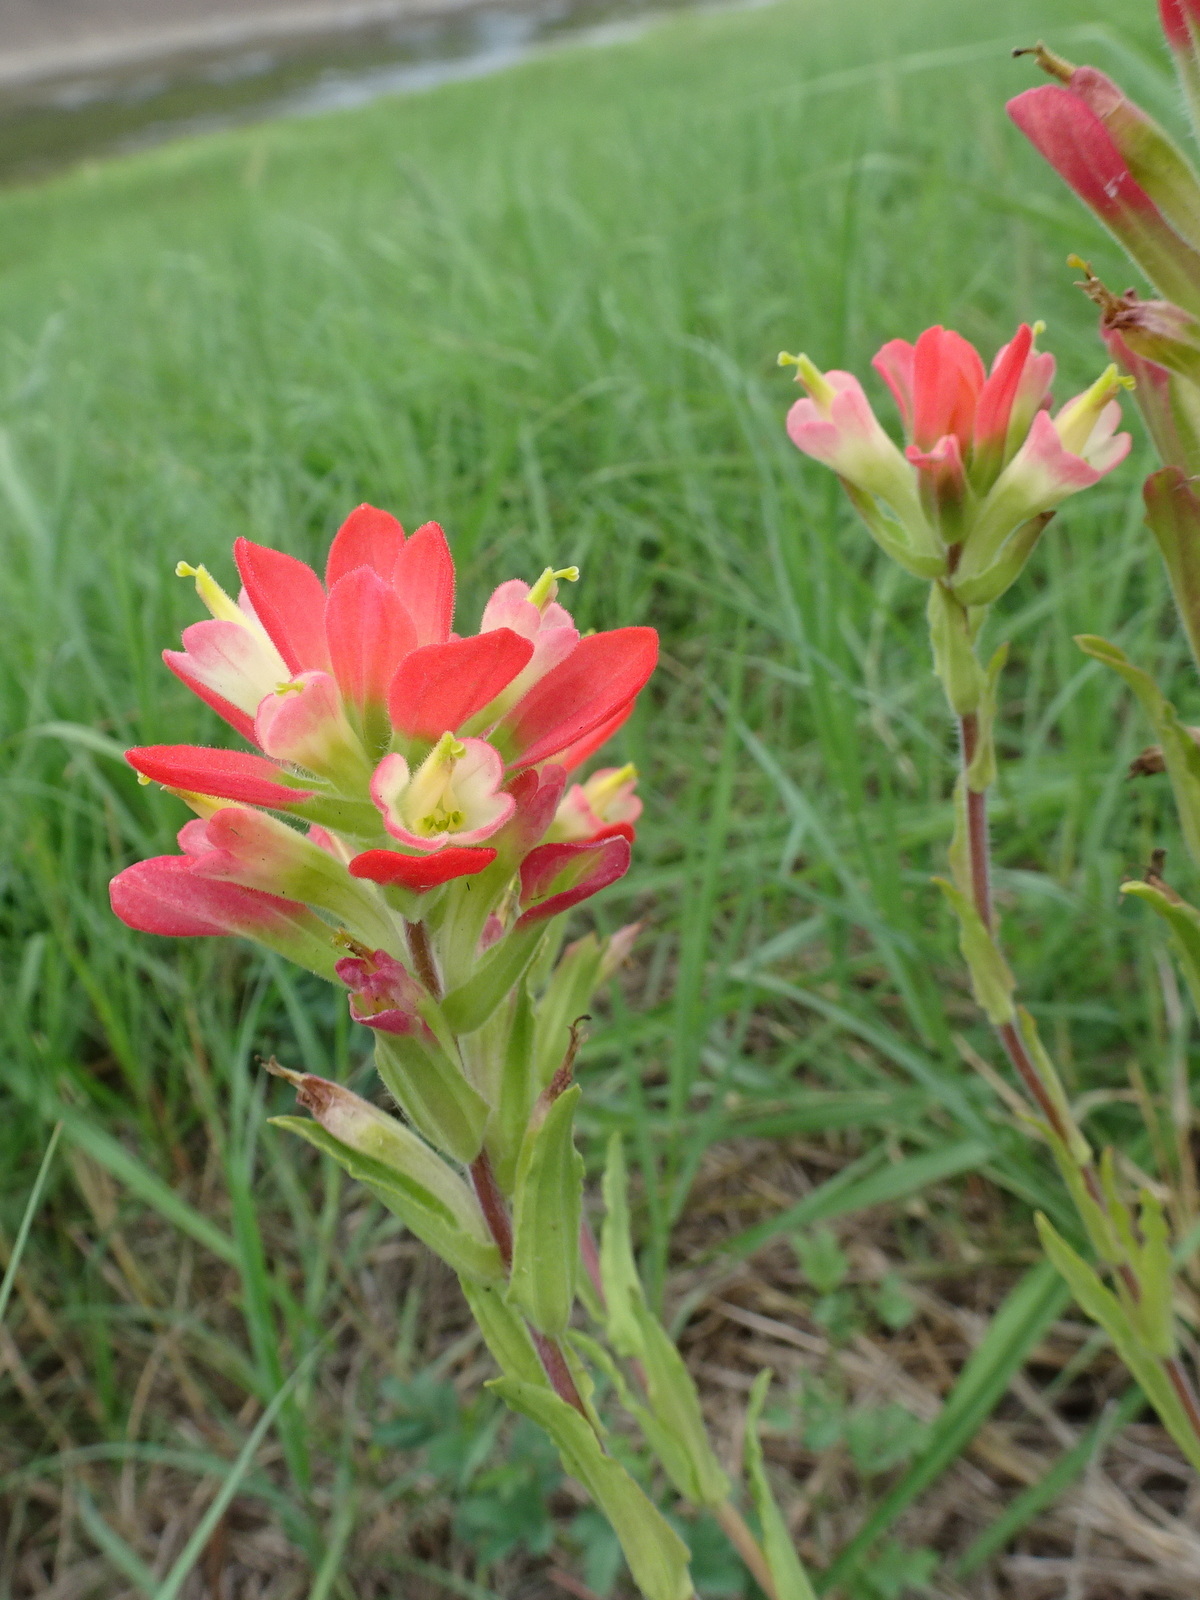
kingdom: Plantae
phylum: Tracheophyta
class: Magnoliopsida
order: Lamiales
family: Orobanchaceae
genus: Castilleja
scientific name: Castilleja indivisa
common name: Texas paintbrush
